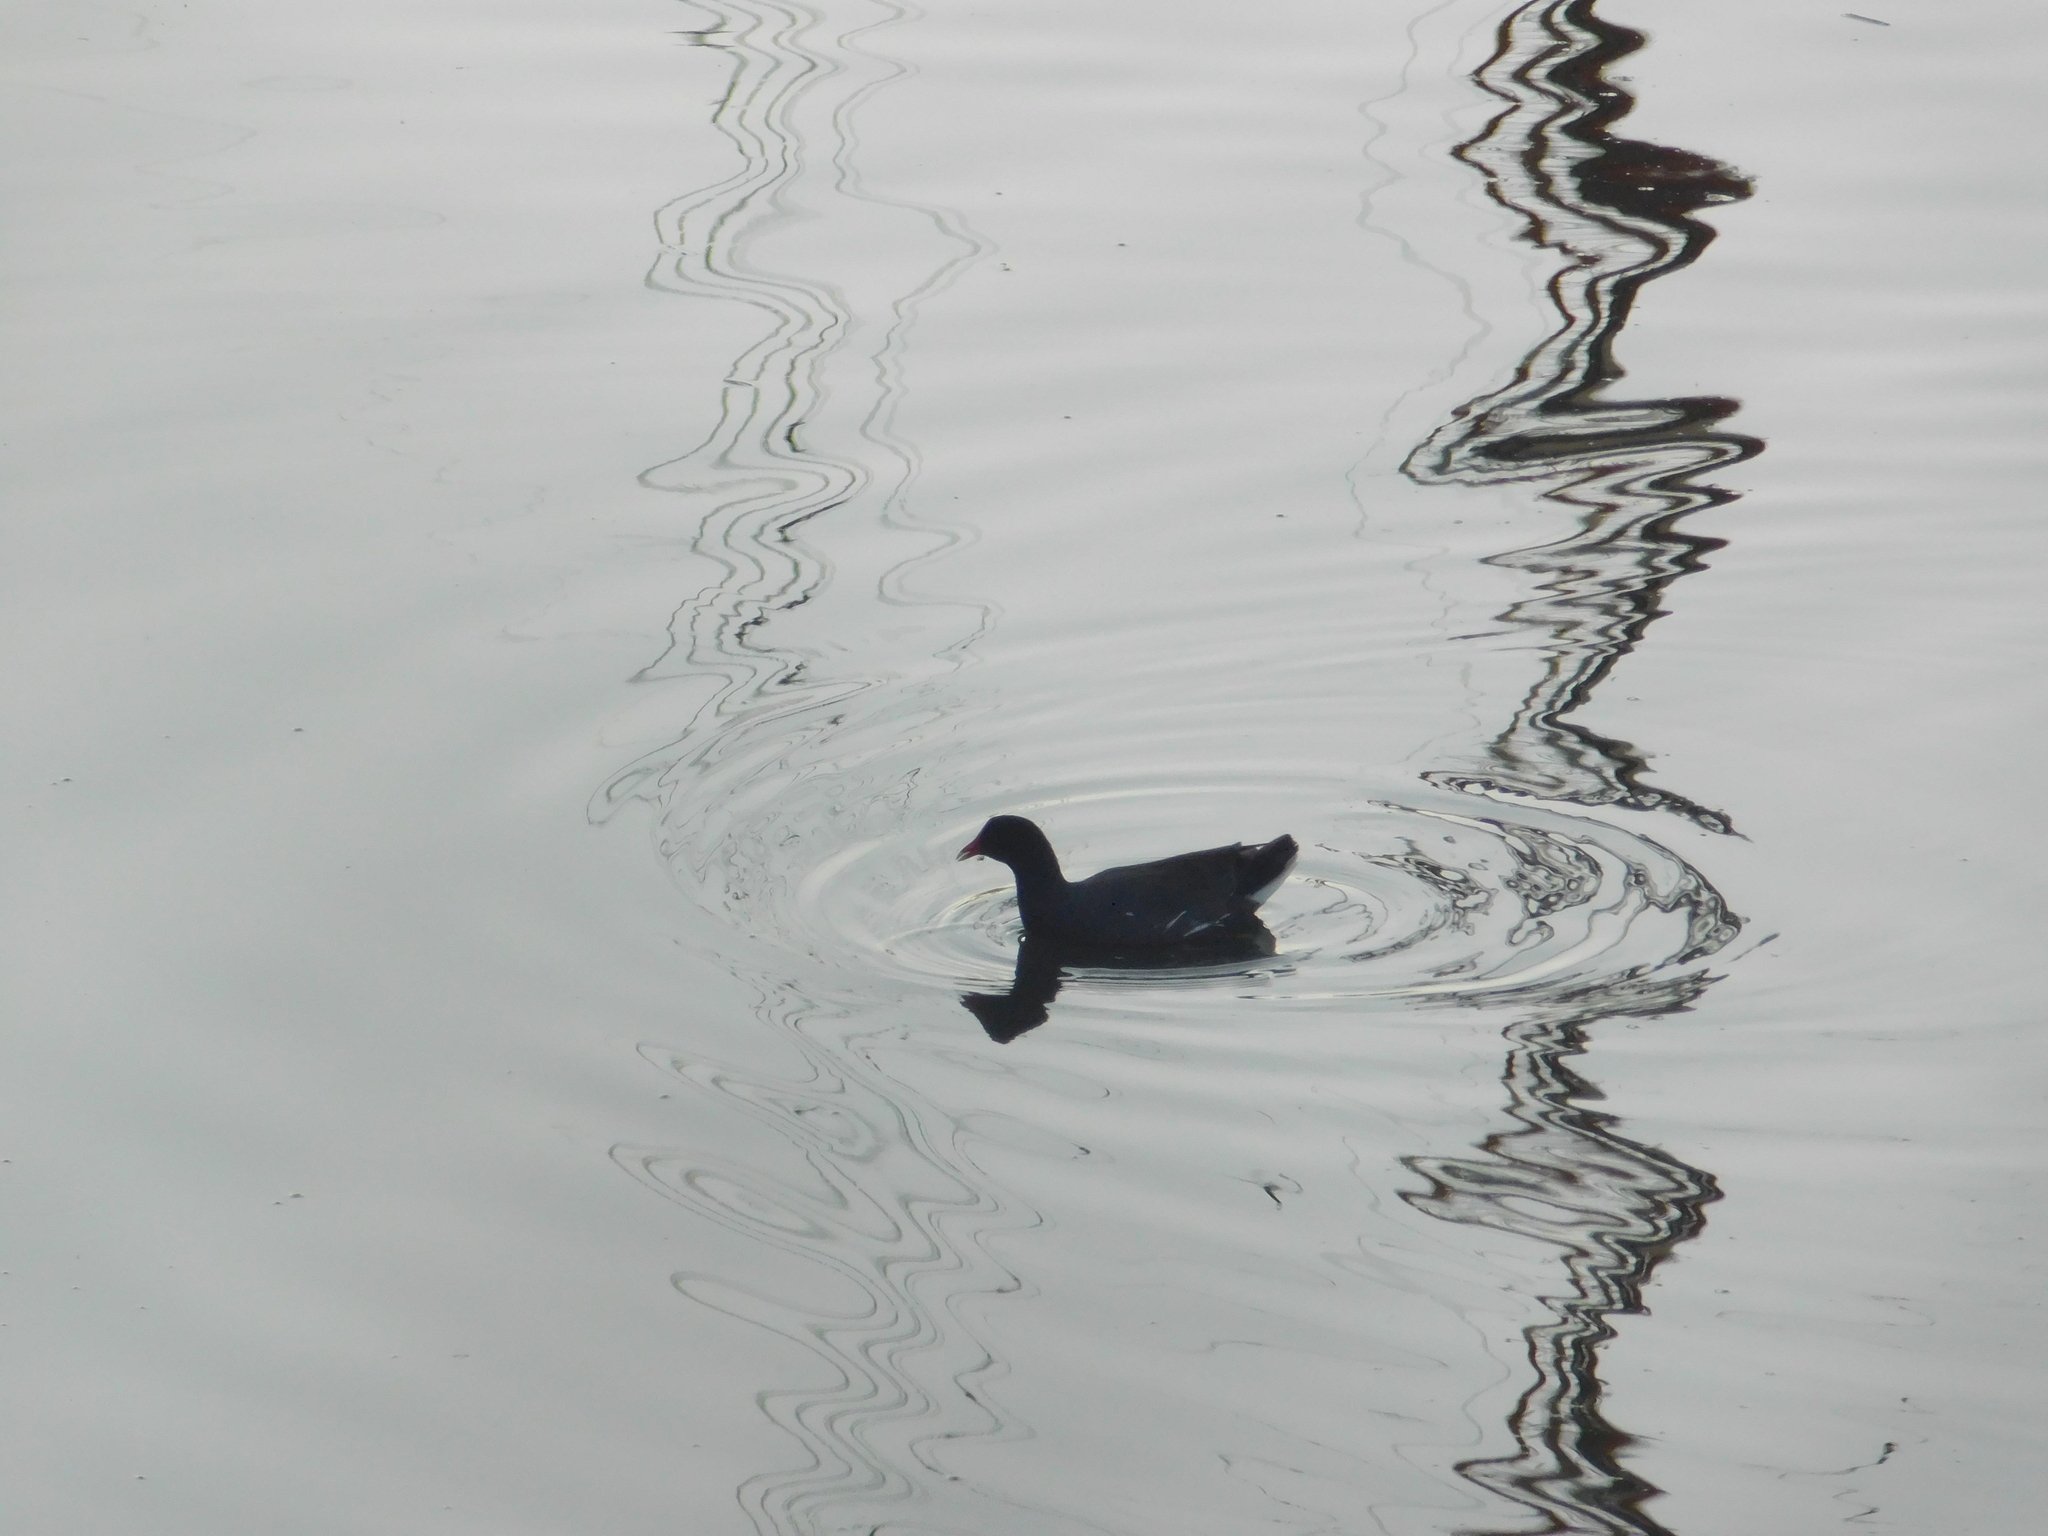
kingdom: Animalia
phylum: Chordata
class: Aves
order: Gruiformes
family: Rallidae
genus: Gallinula
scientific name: Gallinula chloropus
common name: Common moorhen
